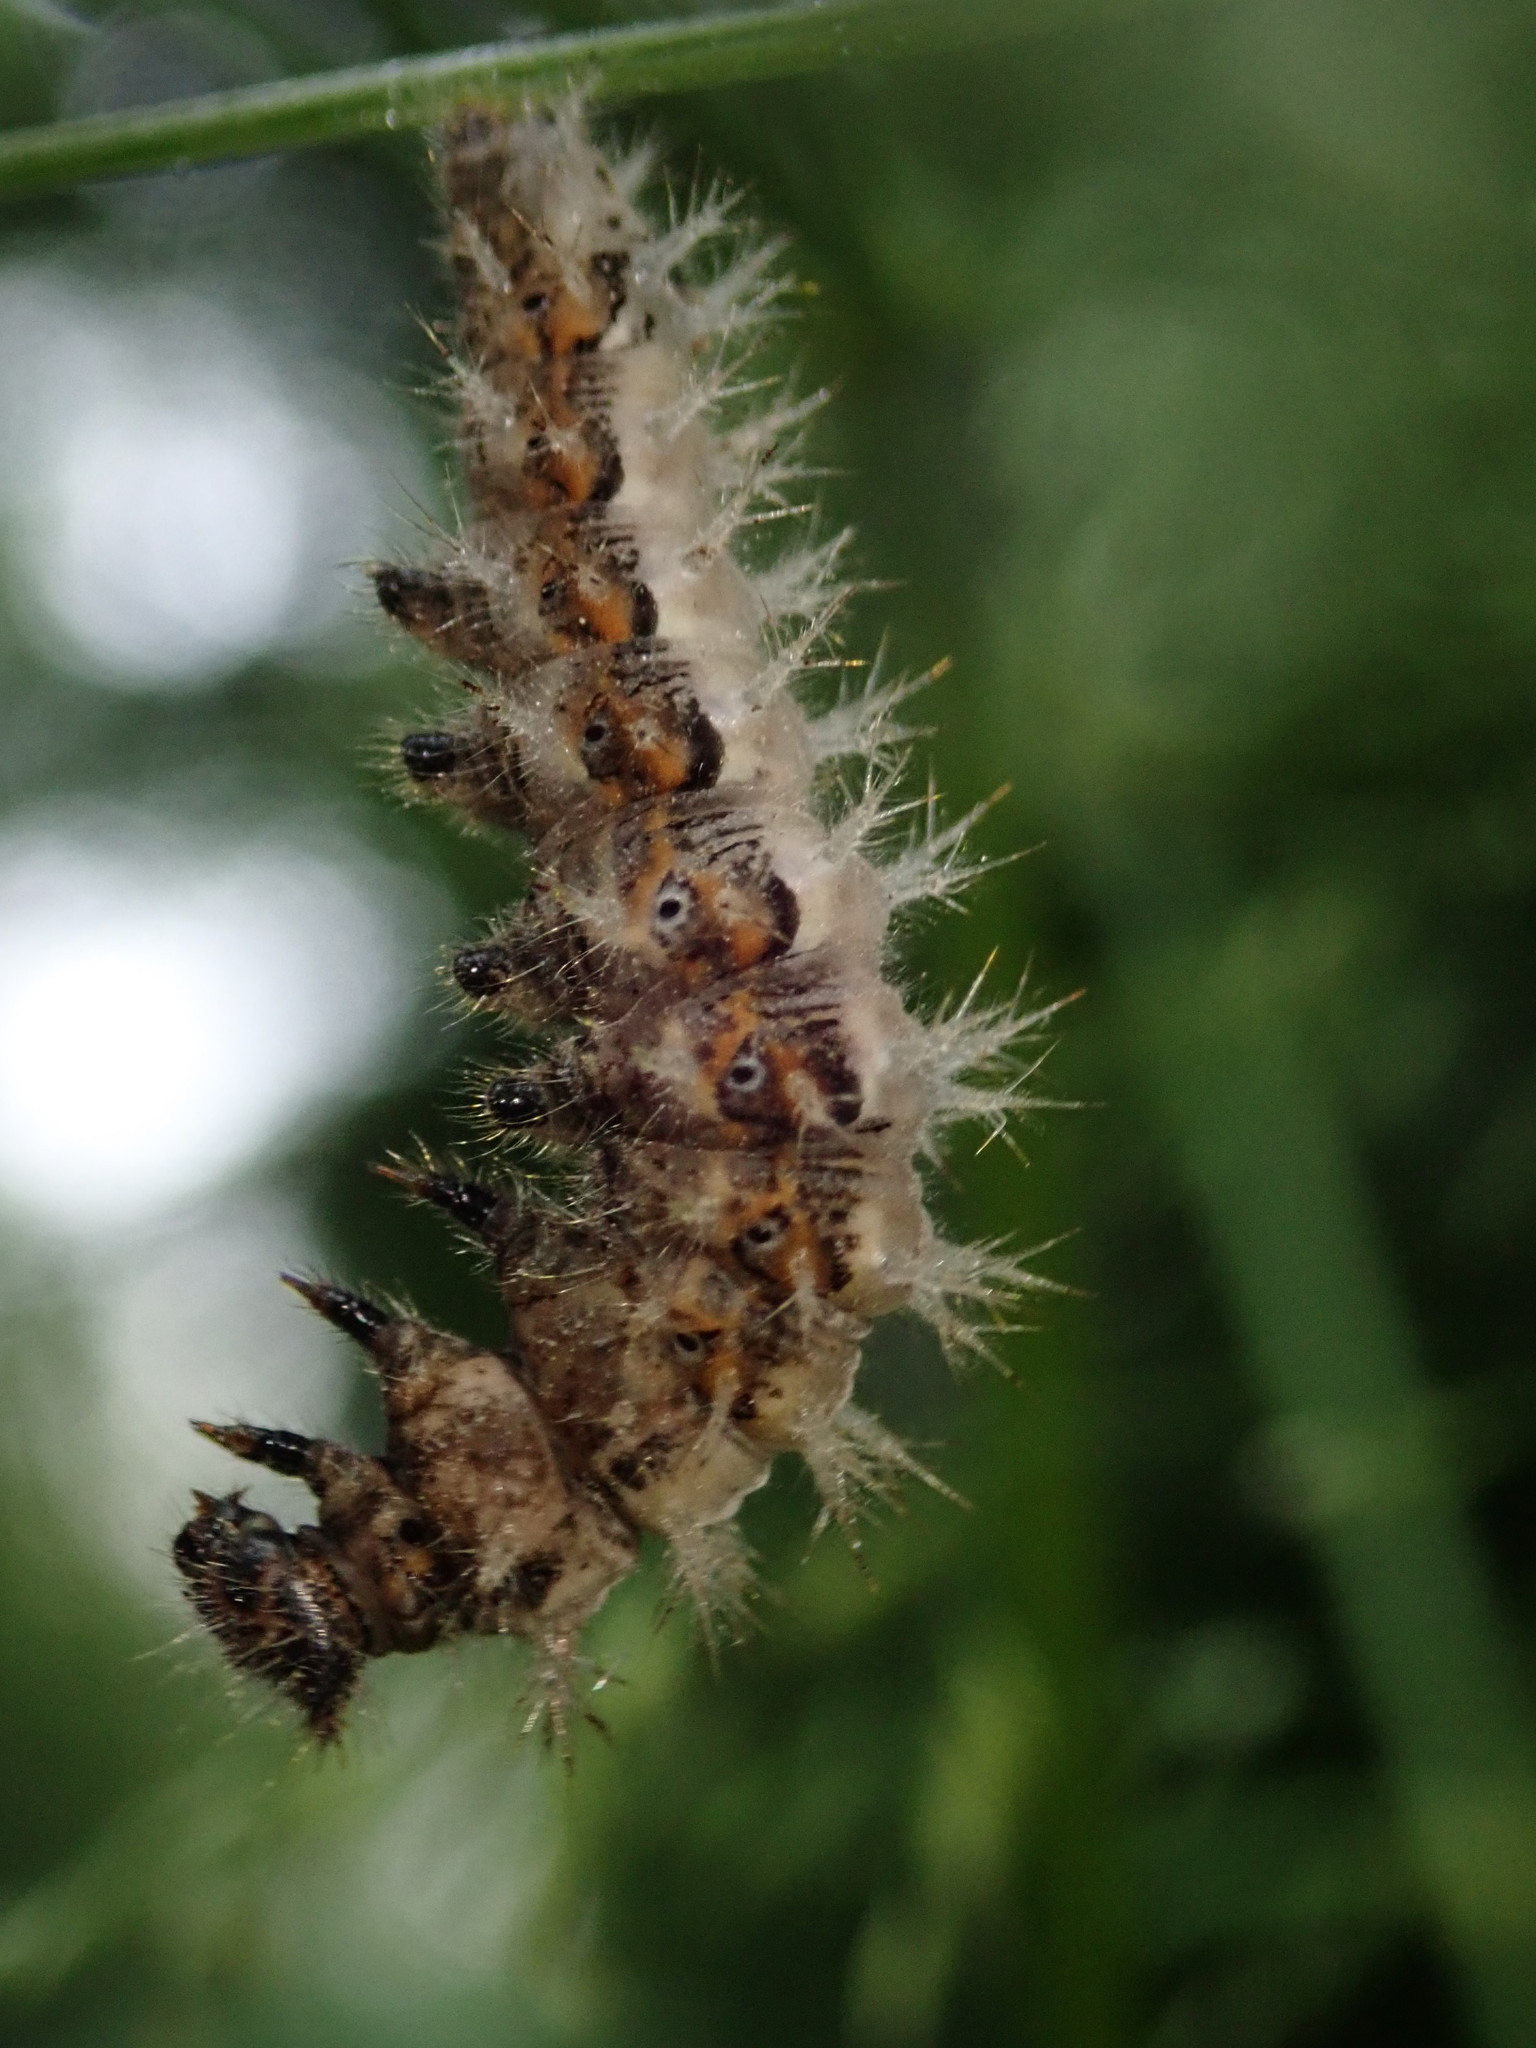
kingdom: Animalia
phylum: Arthropoda
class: Insecta
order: Lepidoptera
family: Nymphalidae
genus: Polygonia
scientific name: Polygonia c-album
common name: Comma
